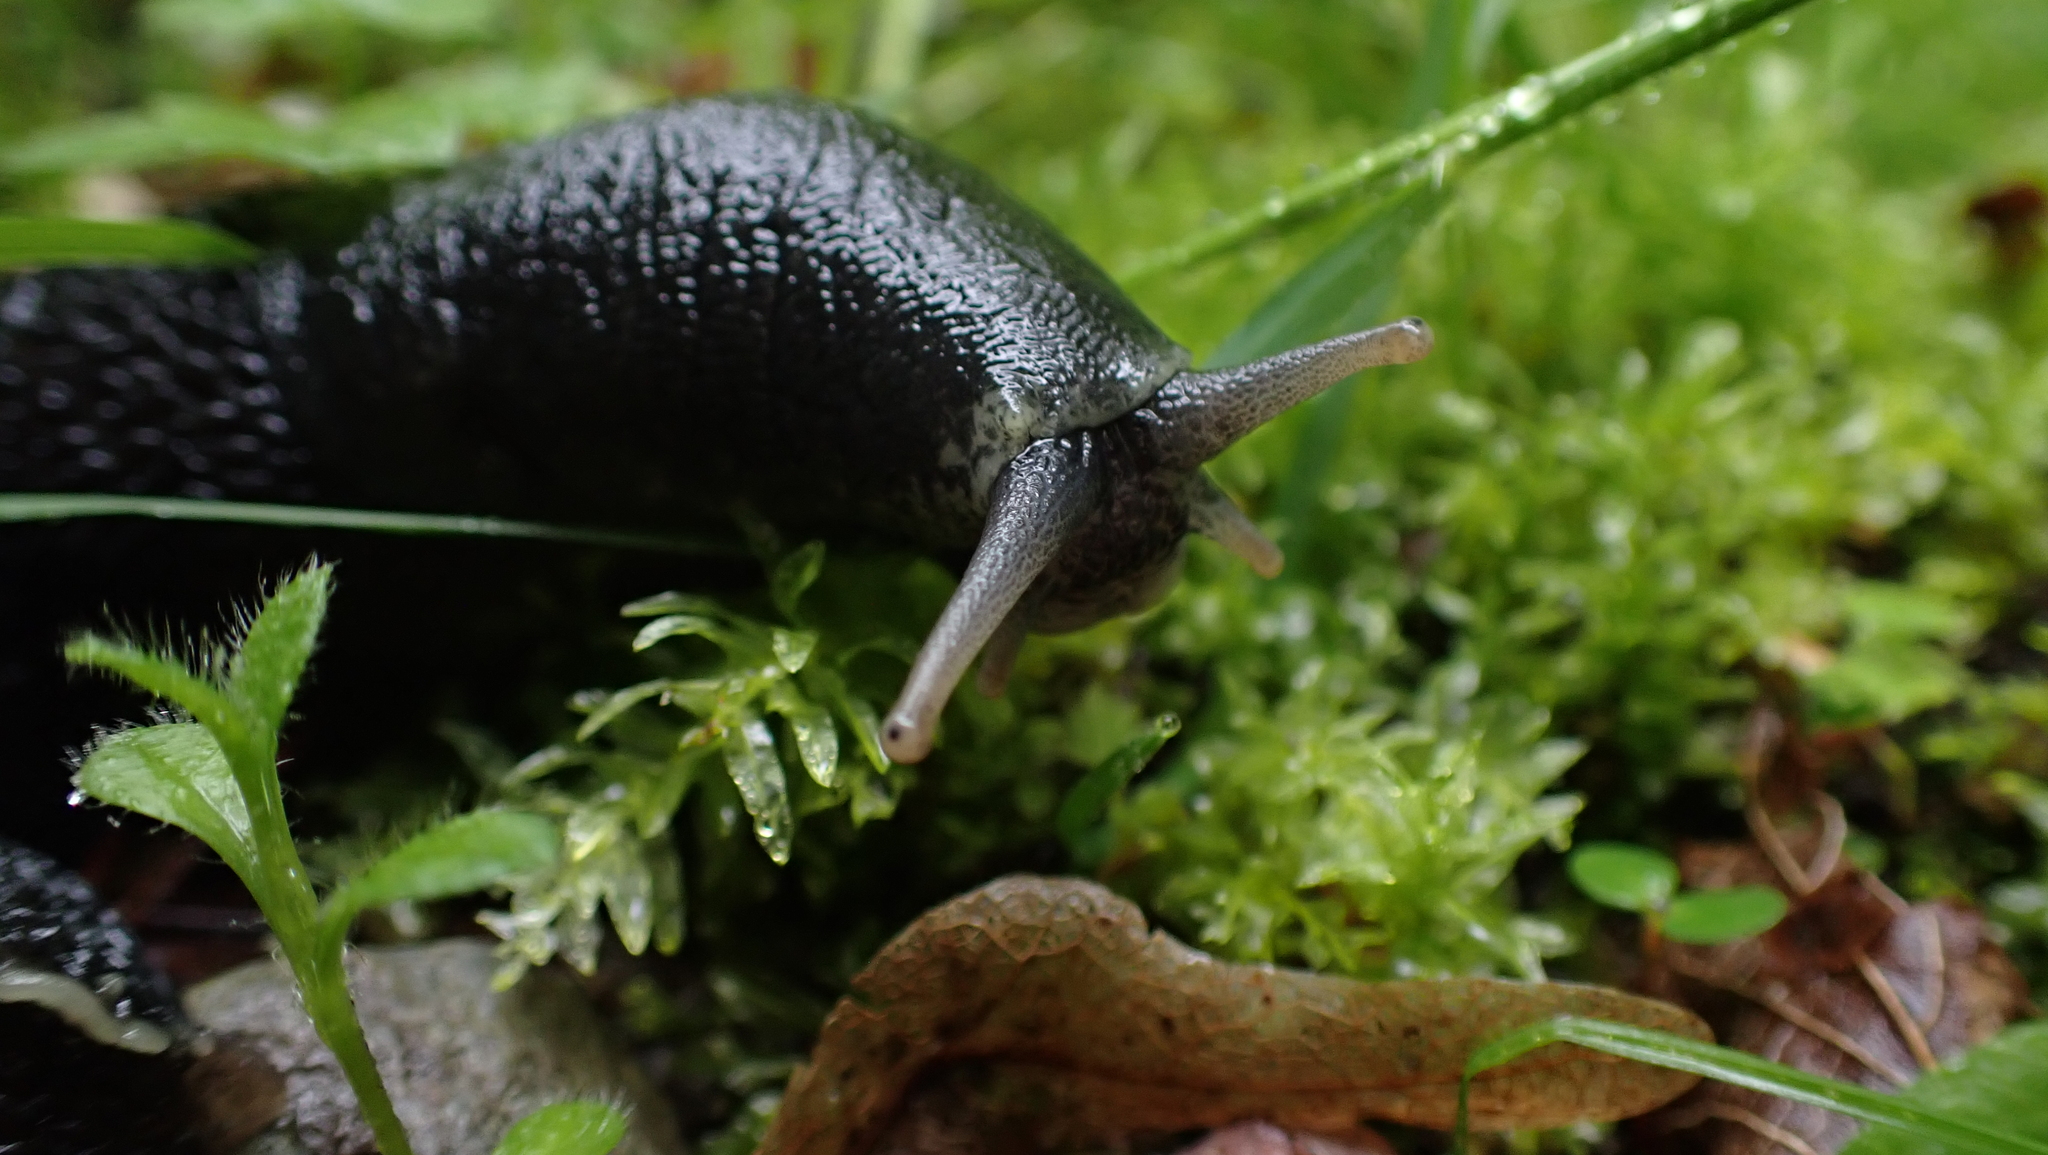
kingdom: Animalia
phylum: Mollusca
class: Gastropoda
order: Stylommatophora
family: Limacidae
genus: Limax
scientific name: Limax cinereoniger
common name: Ash-black slug
